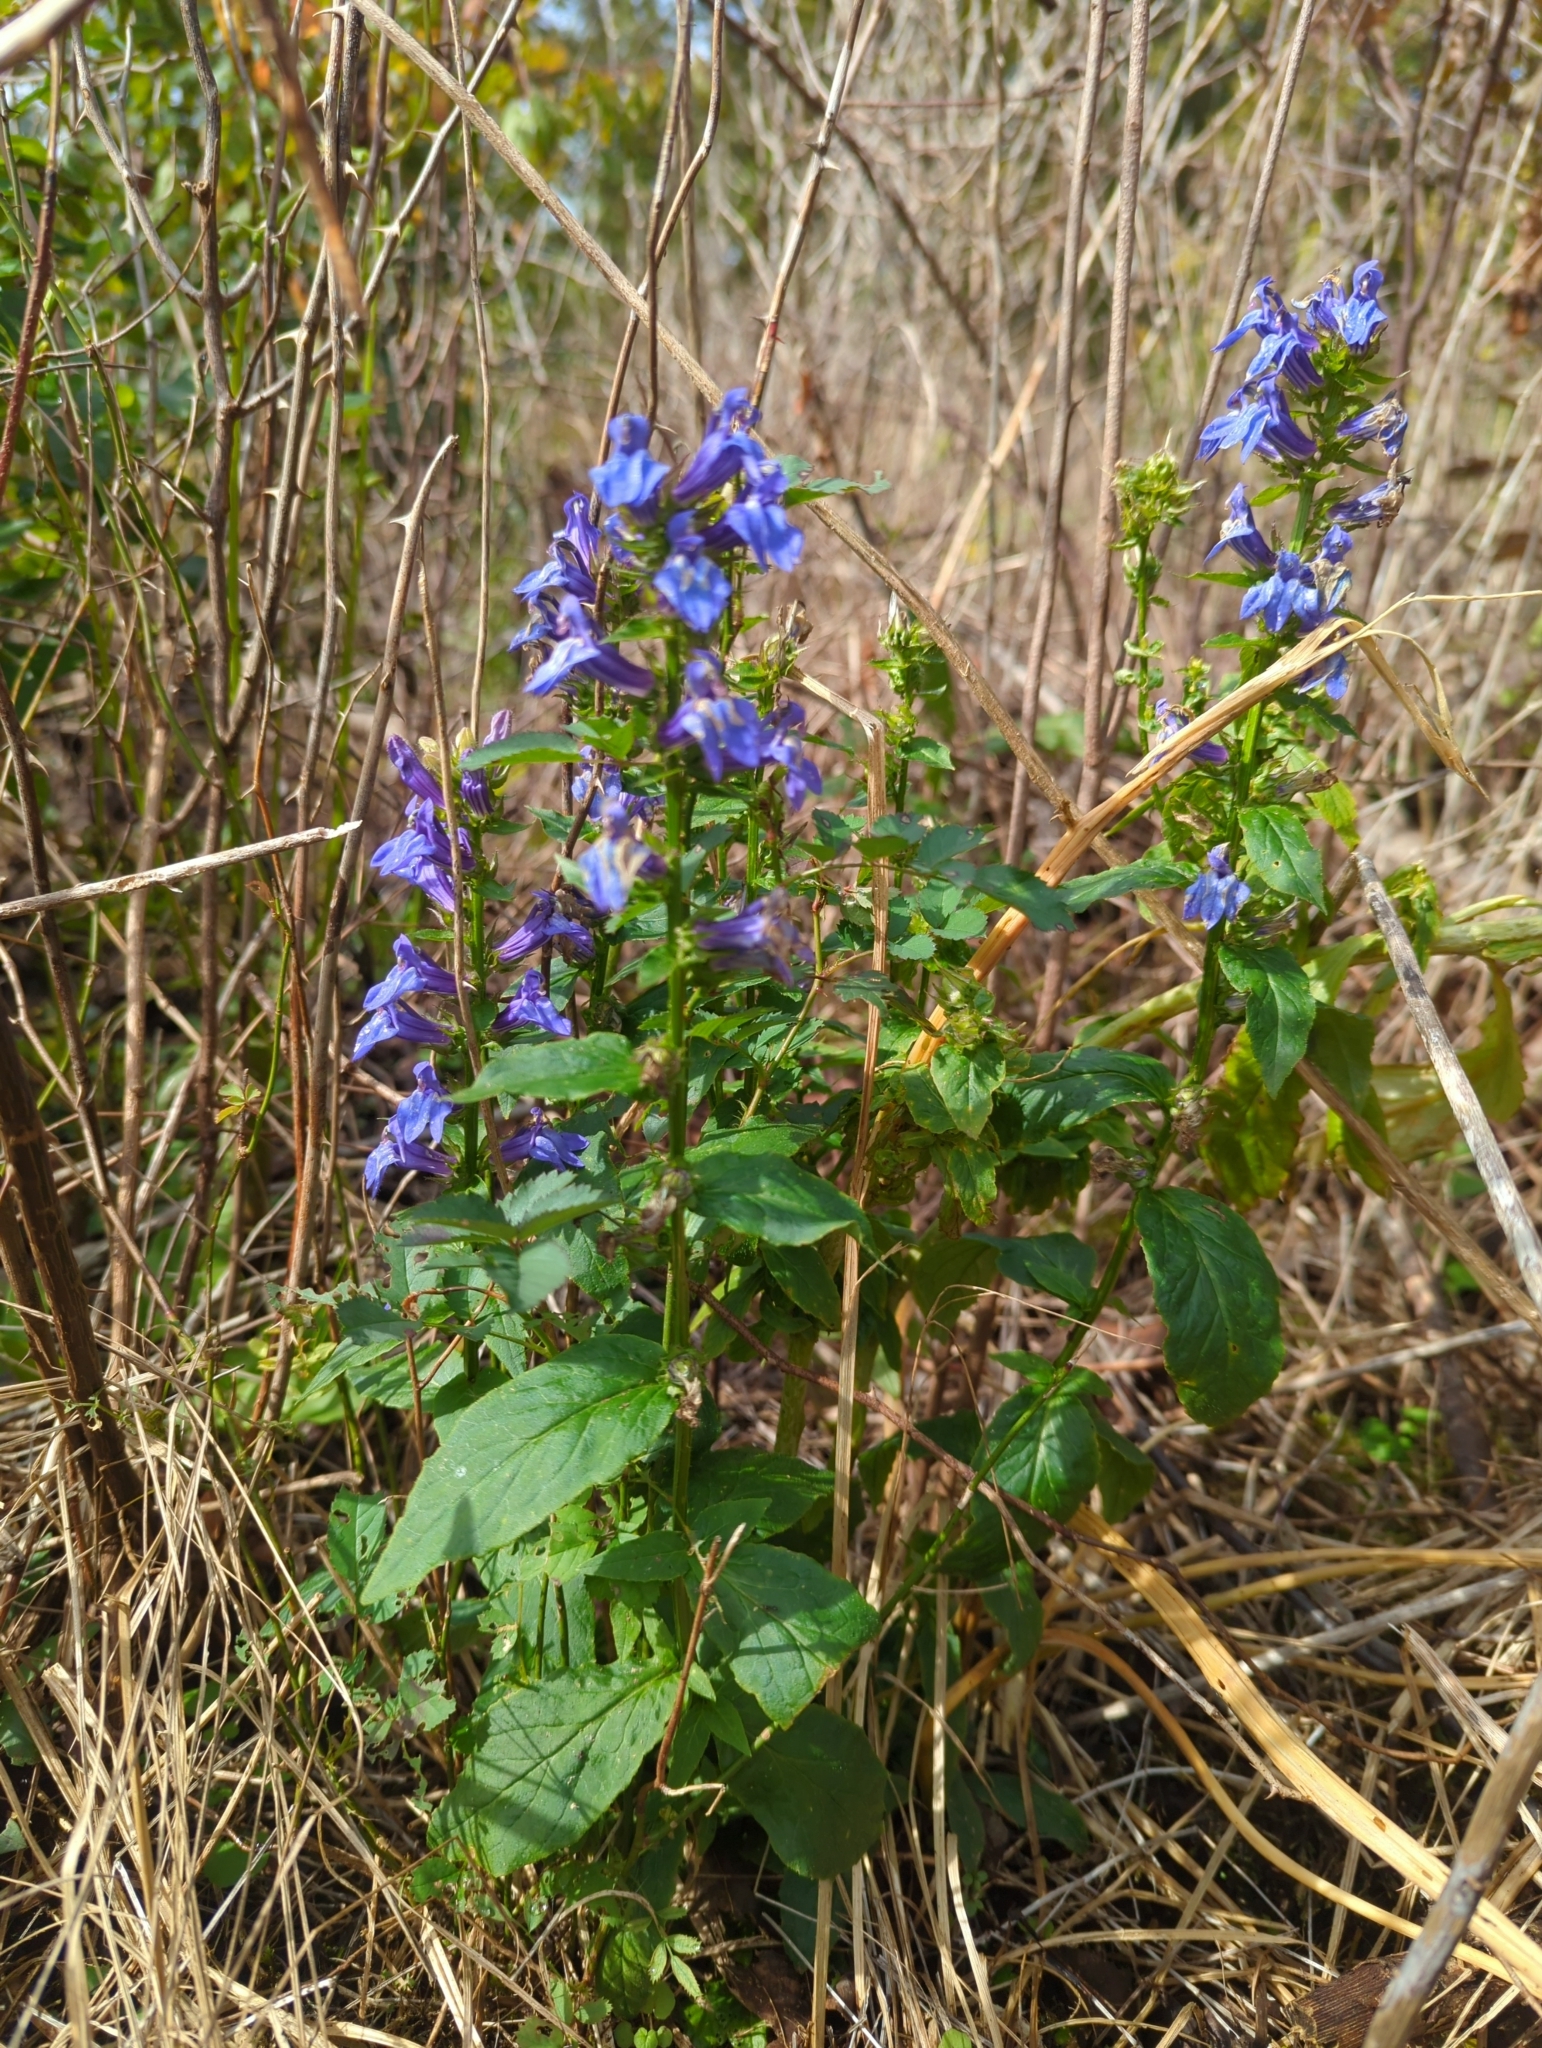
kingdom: Plantae
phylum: Tracheophyta
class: Magnoliopsida
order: Asterales
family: Campanulaceae
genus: Lobelia
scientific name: Lobelia siphilitica
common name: Great lobelia
